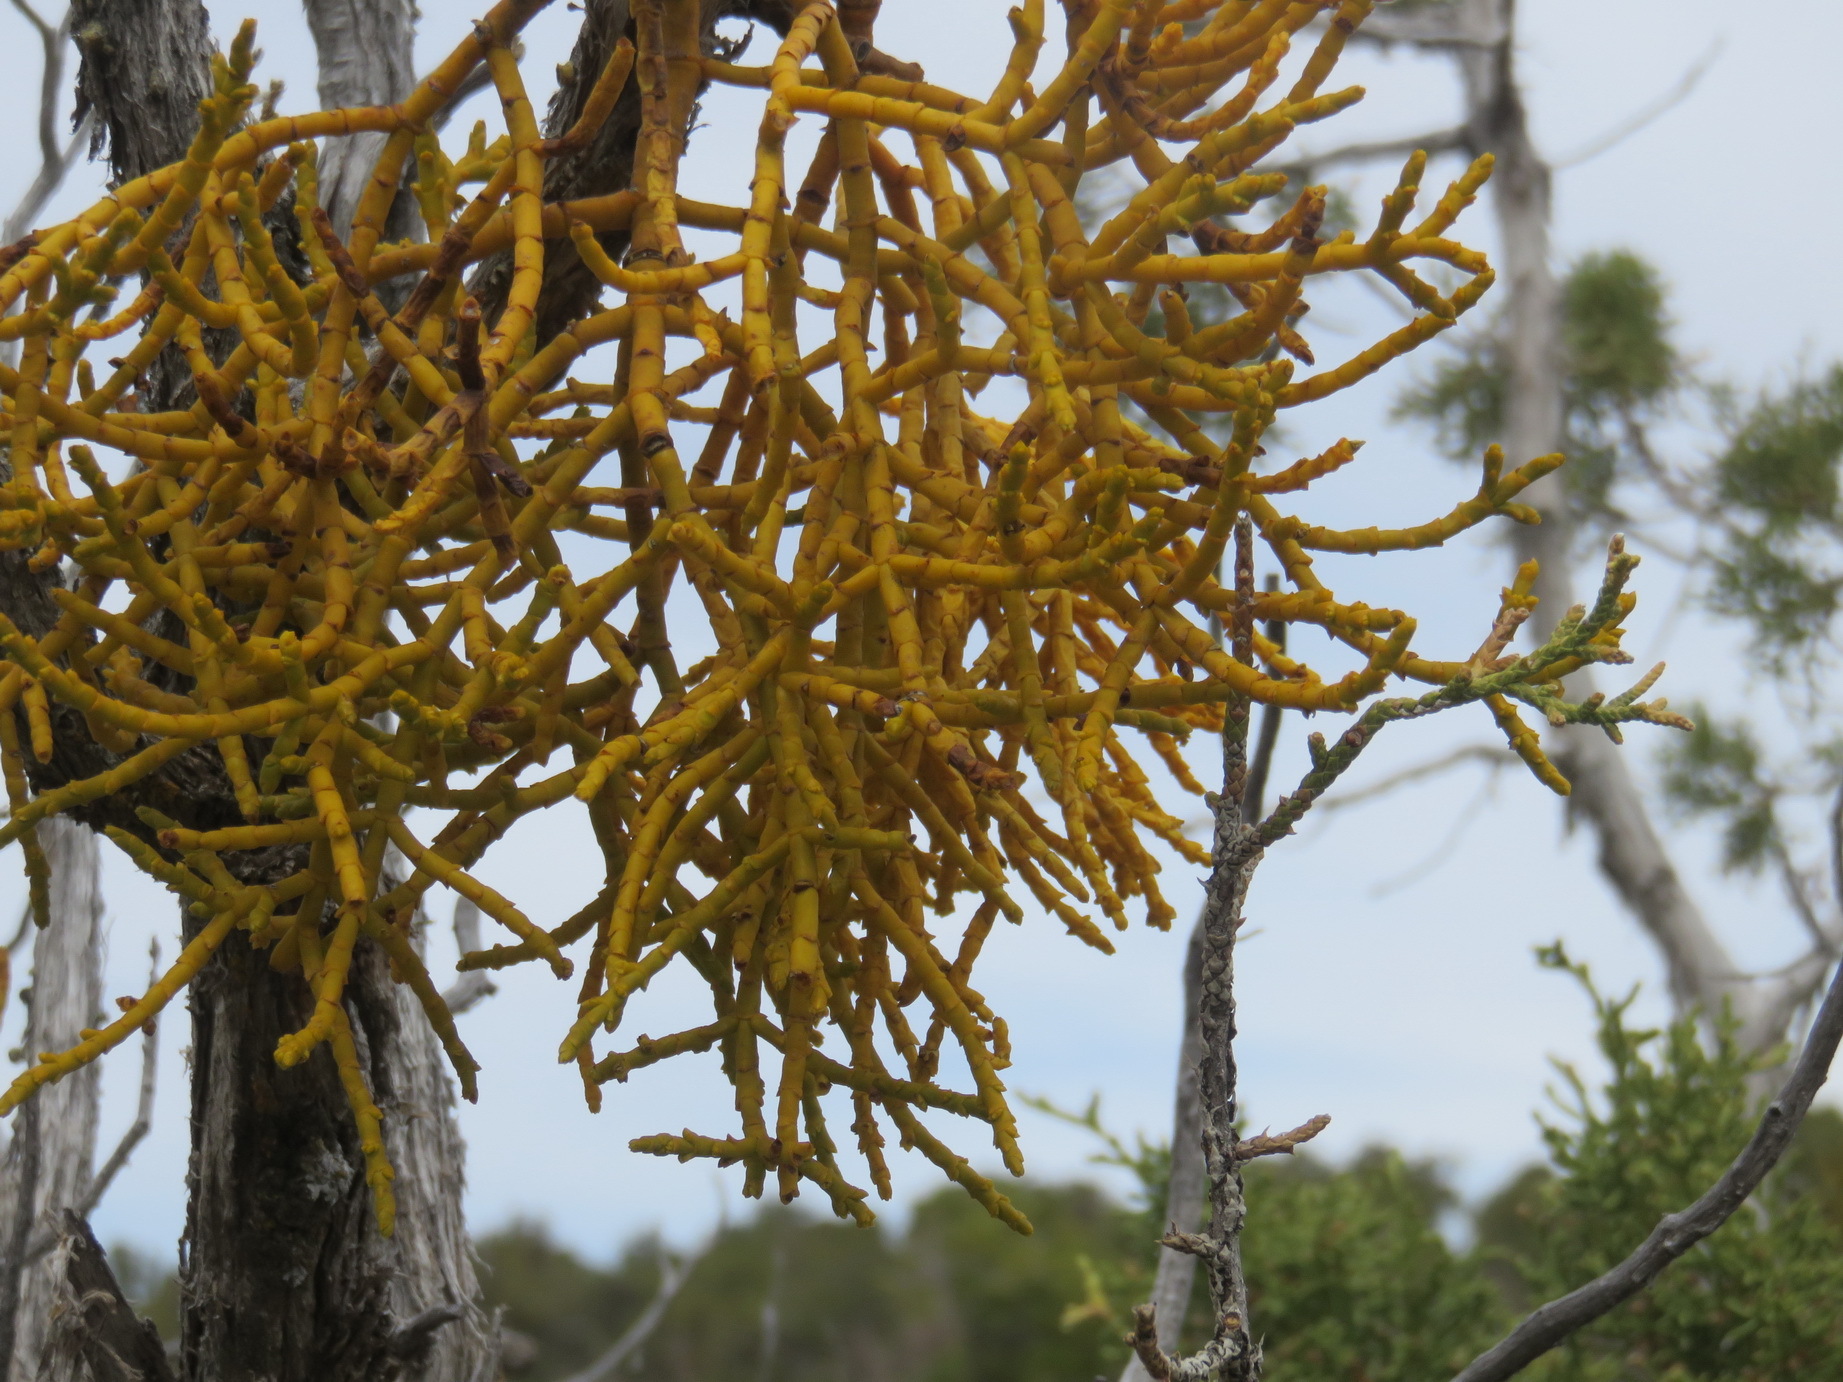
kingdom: Plantae
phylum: Tracheophyta
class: Magnoliopsida
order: Santalales
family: Viscaceae
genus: Phoradendron
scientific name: Phoradendron juniperinum
